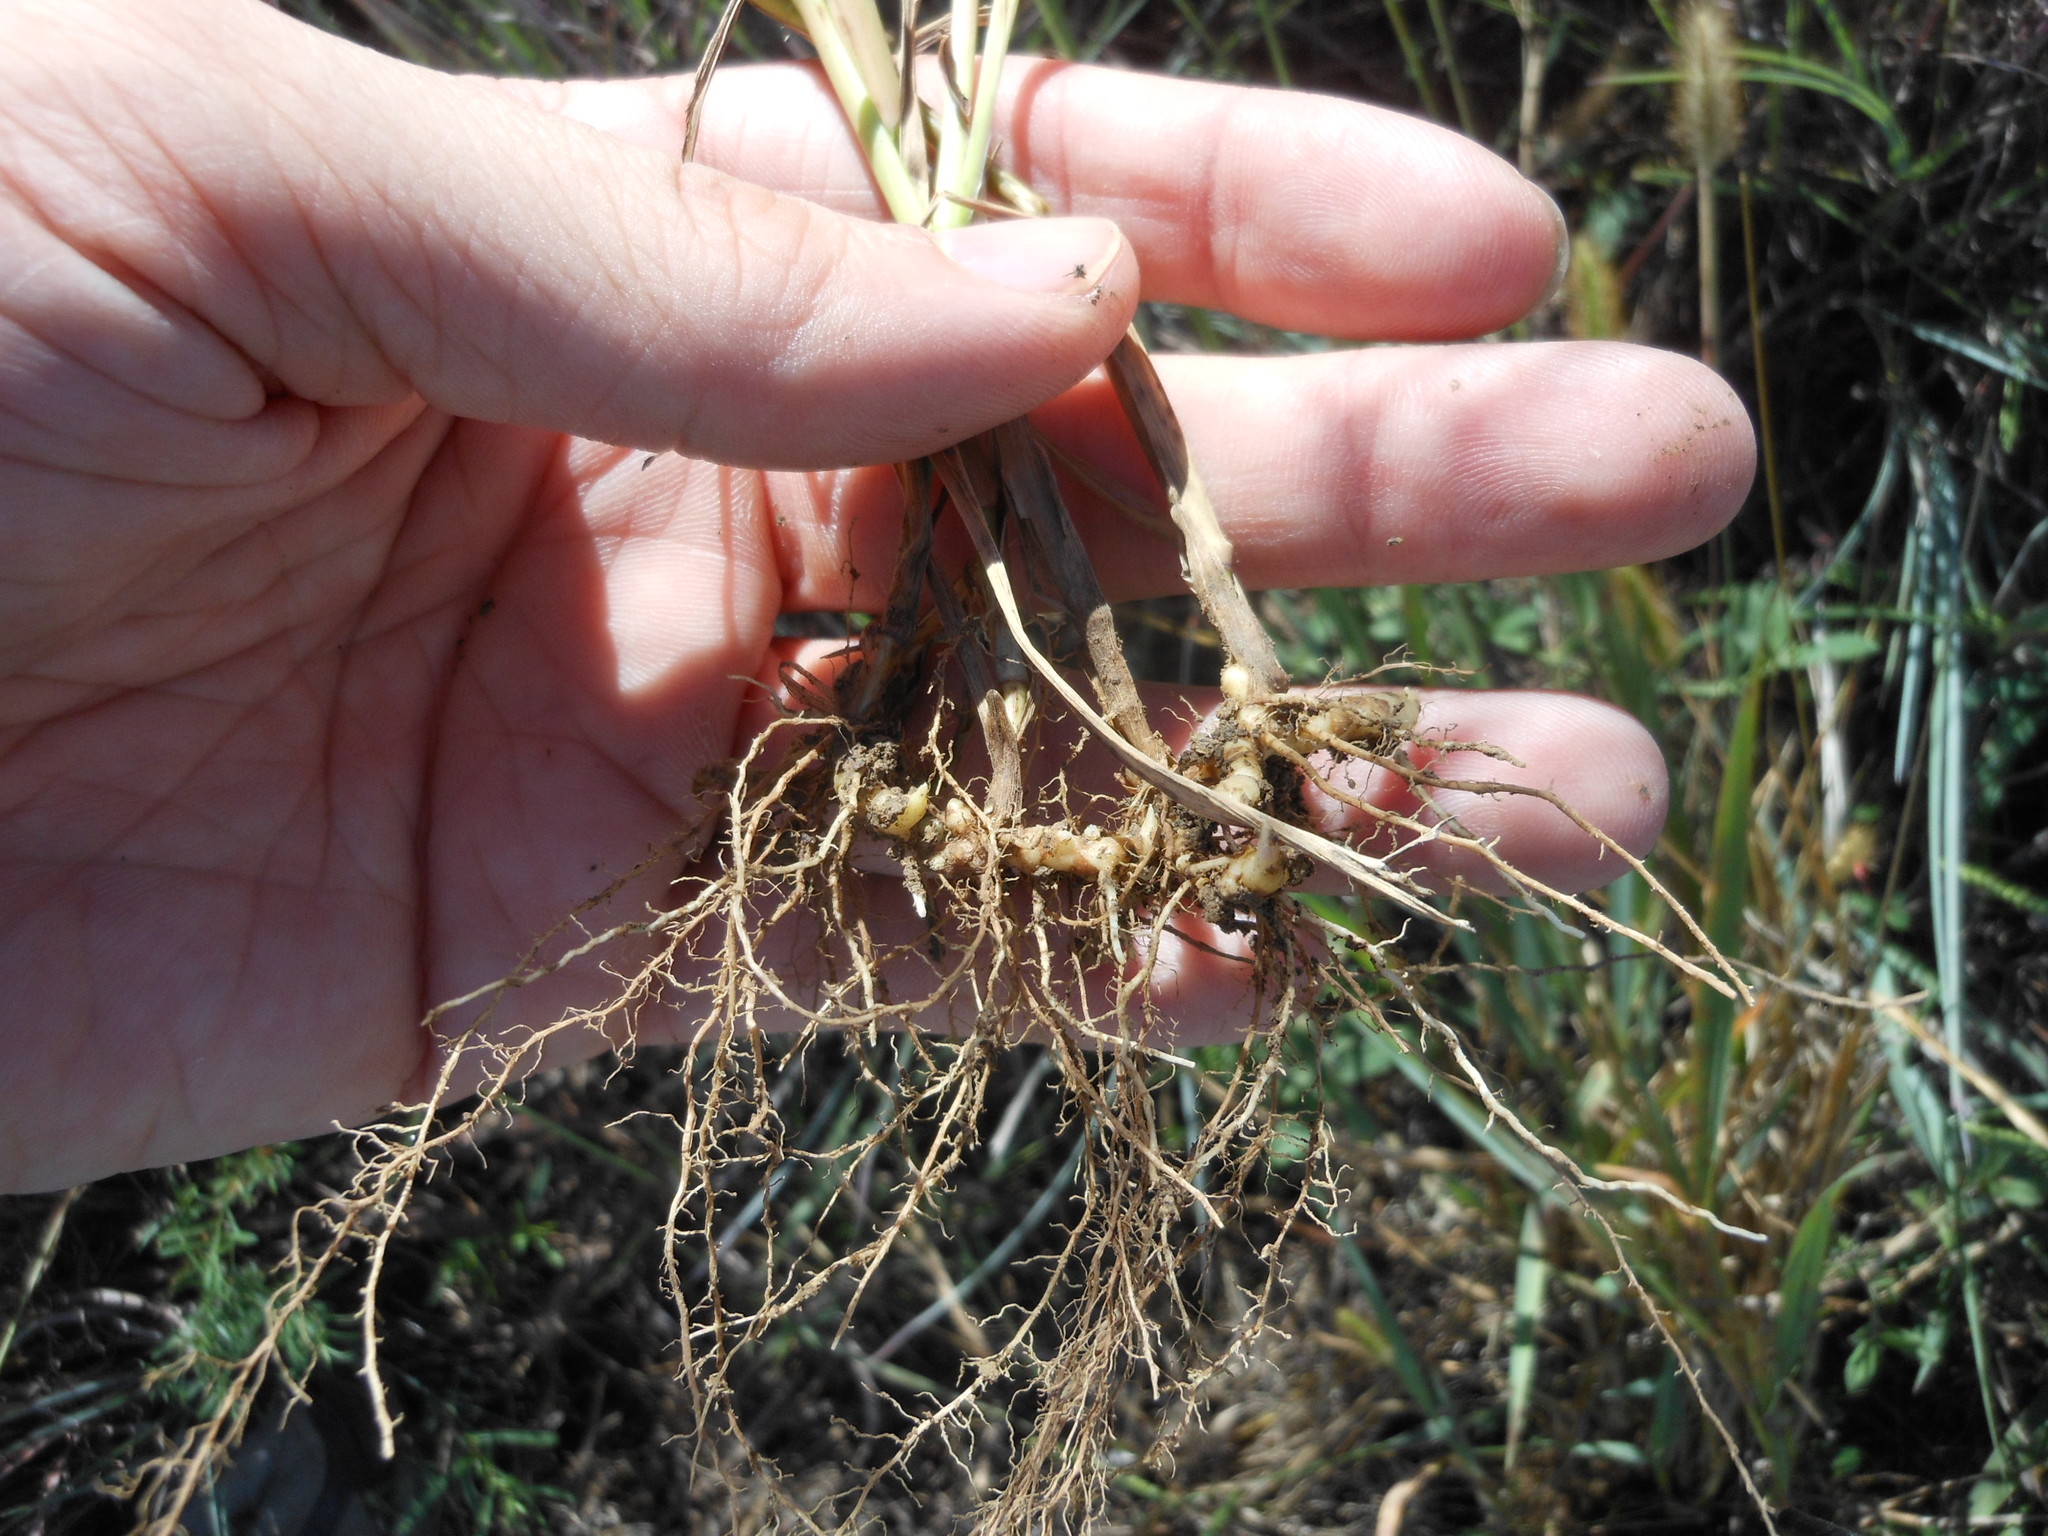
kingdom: Plantae
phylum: Tracheophyta
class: Liliopsida
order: Poales
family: Poaceae
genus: Setaria
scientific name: Setaria parviflora
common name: Knotroot bristle-grass
